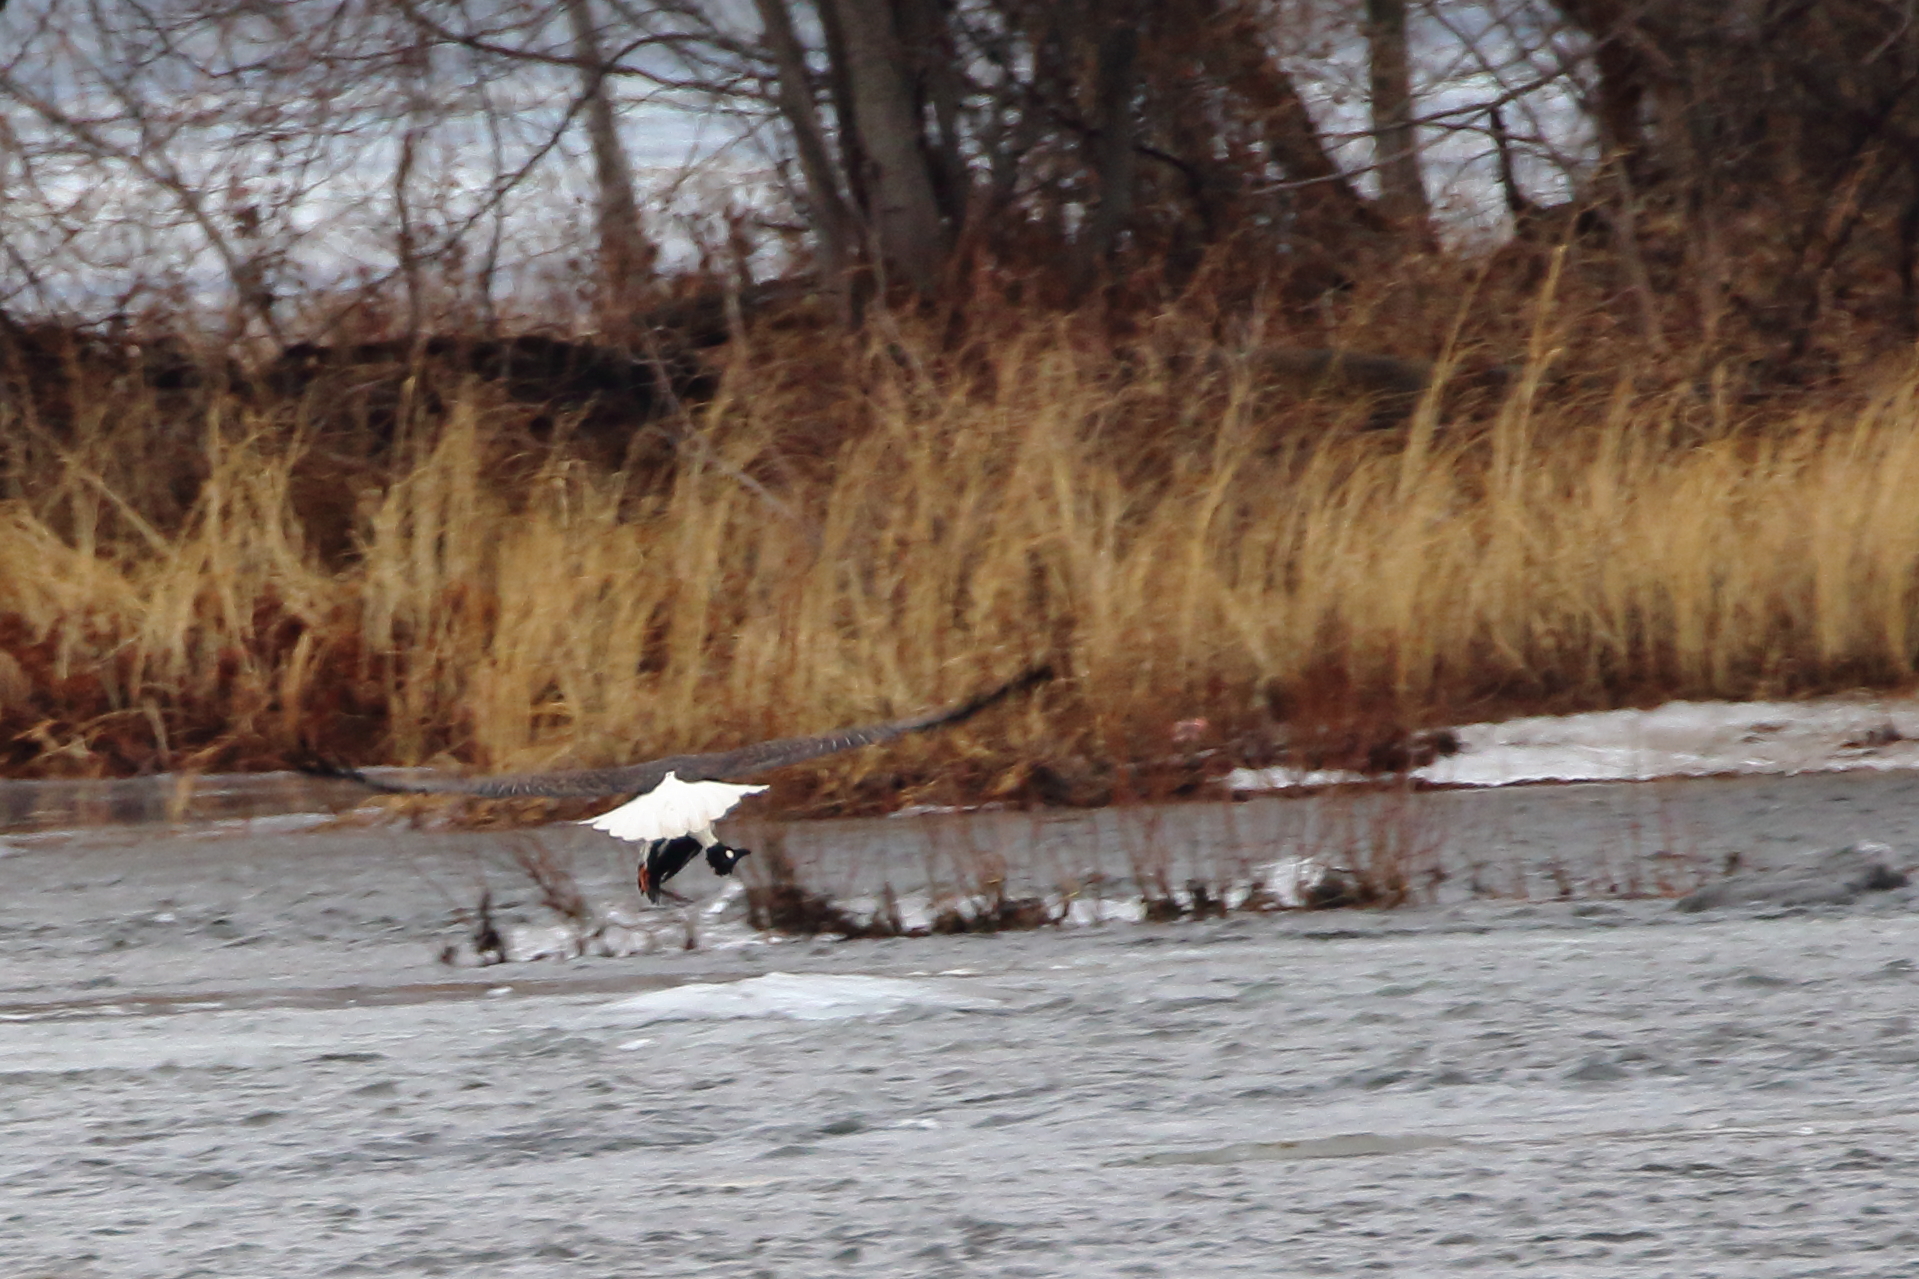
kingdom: Animalia
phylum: Chordata
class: Aves
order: Anseriformes
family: Anatidae
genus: Bucephala
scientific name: Bucephala clangula
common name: Common goldeneye
